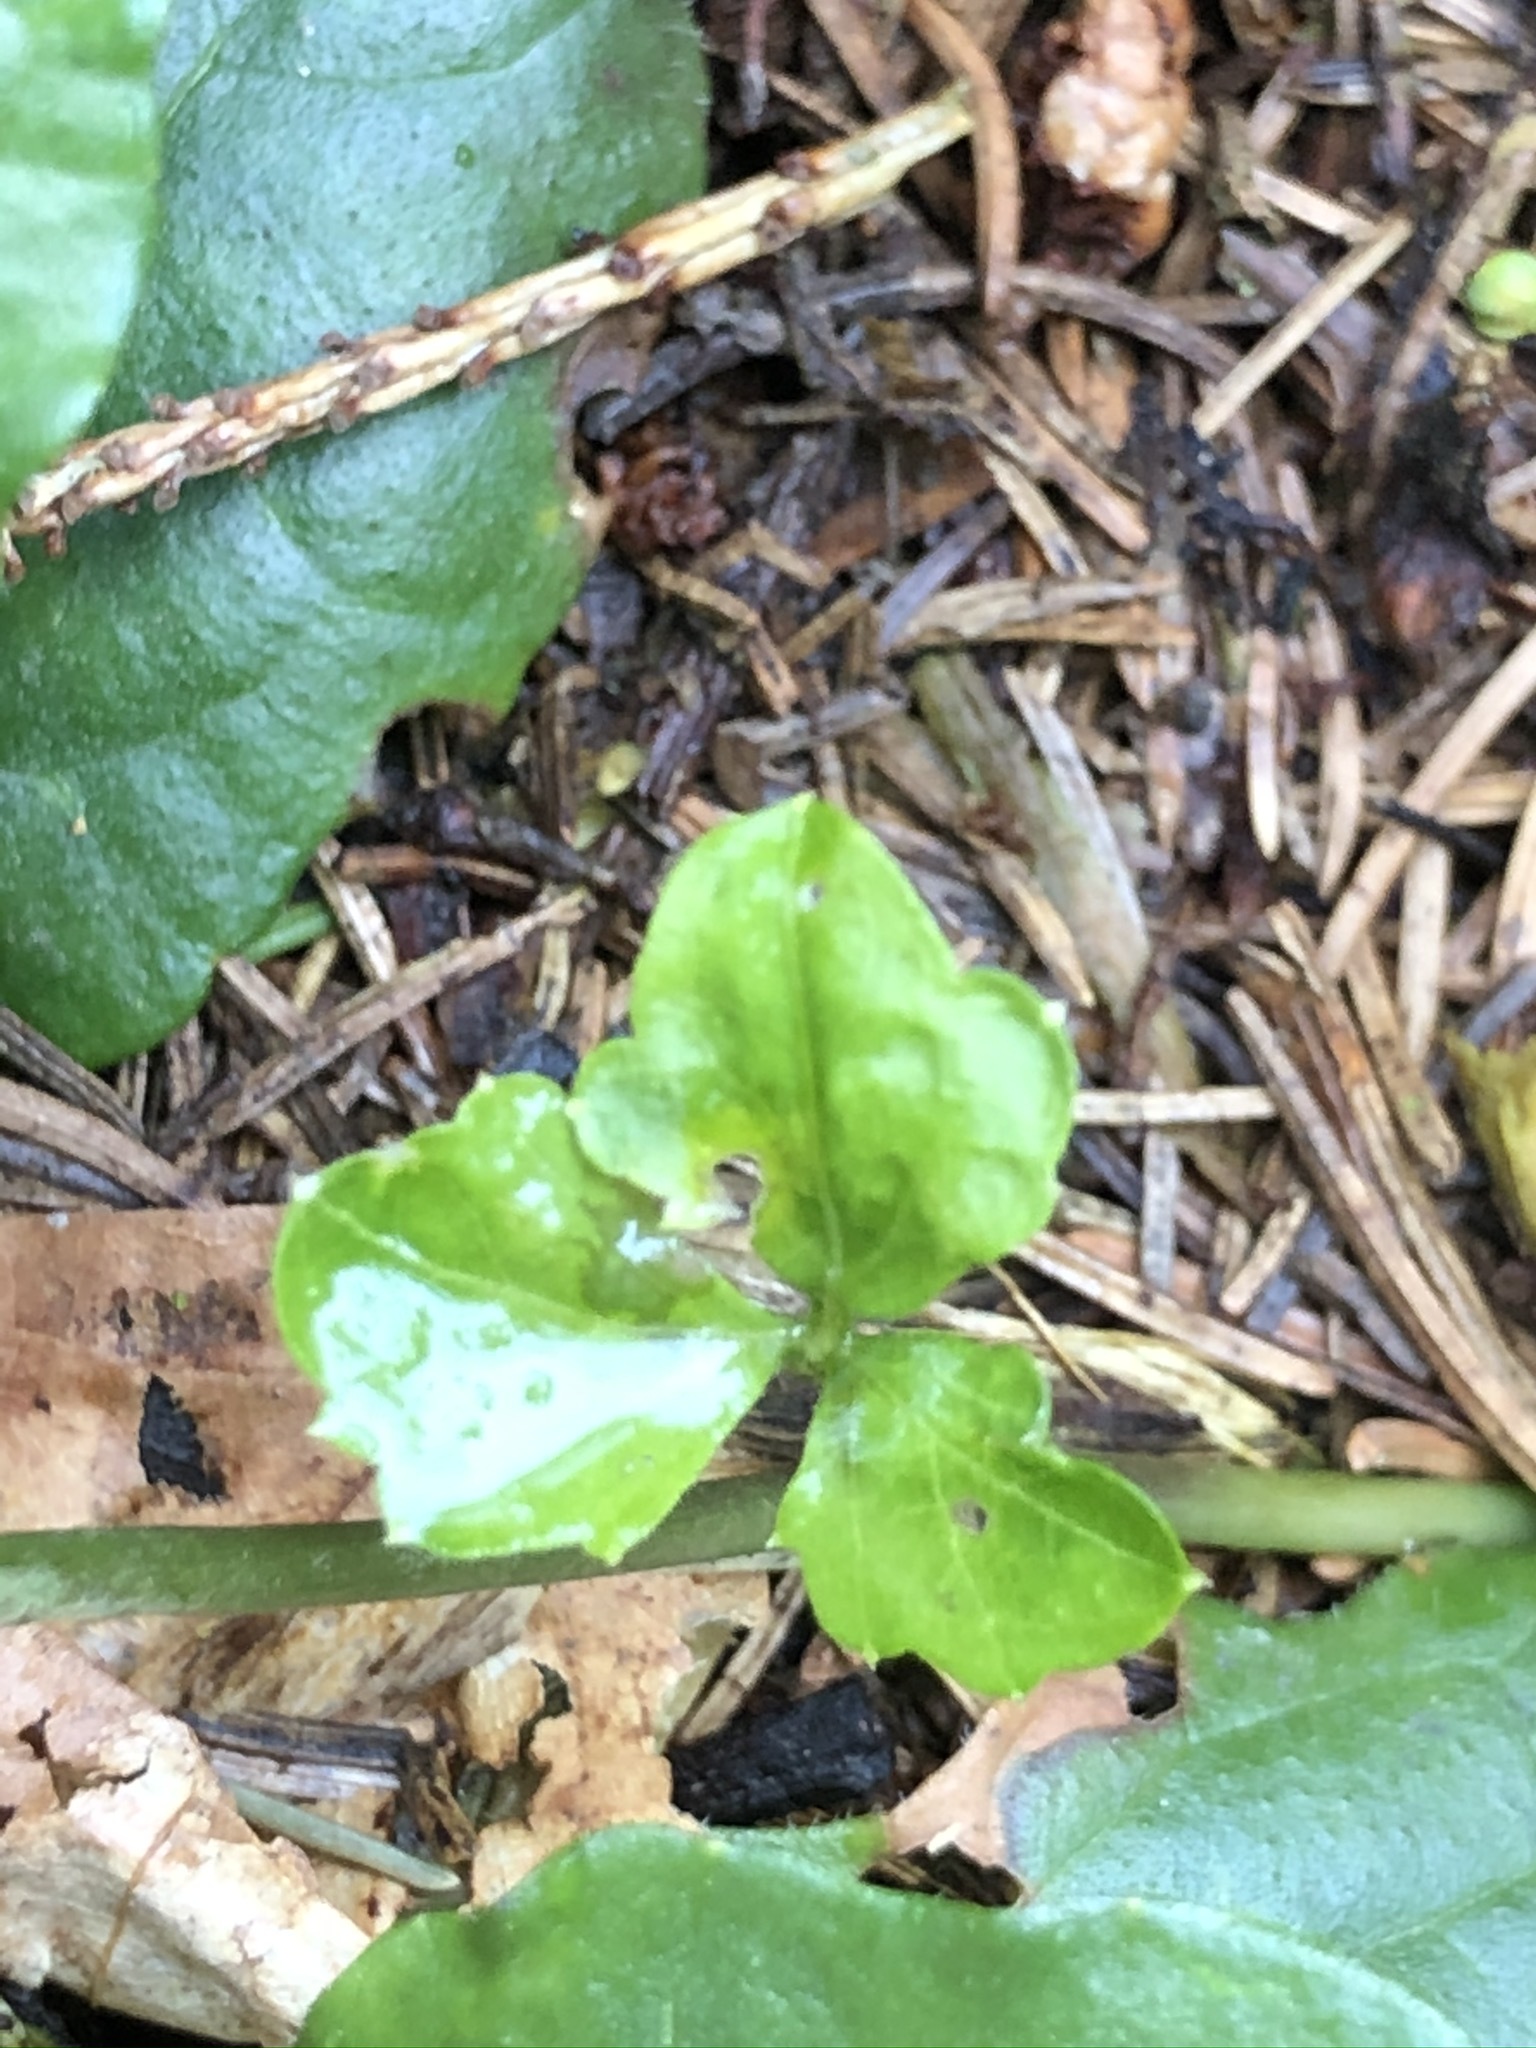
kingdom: Plantae
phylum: Tracheophyta
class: Magnoliopsida
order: Brassicales
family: Brassicaceae
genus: Cardamine
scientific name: Cardamine trifolia
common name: Trefoil cress
